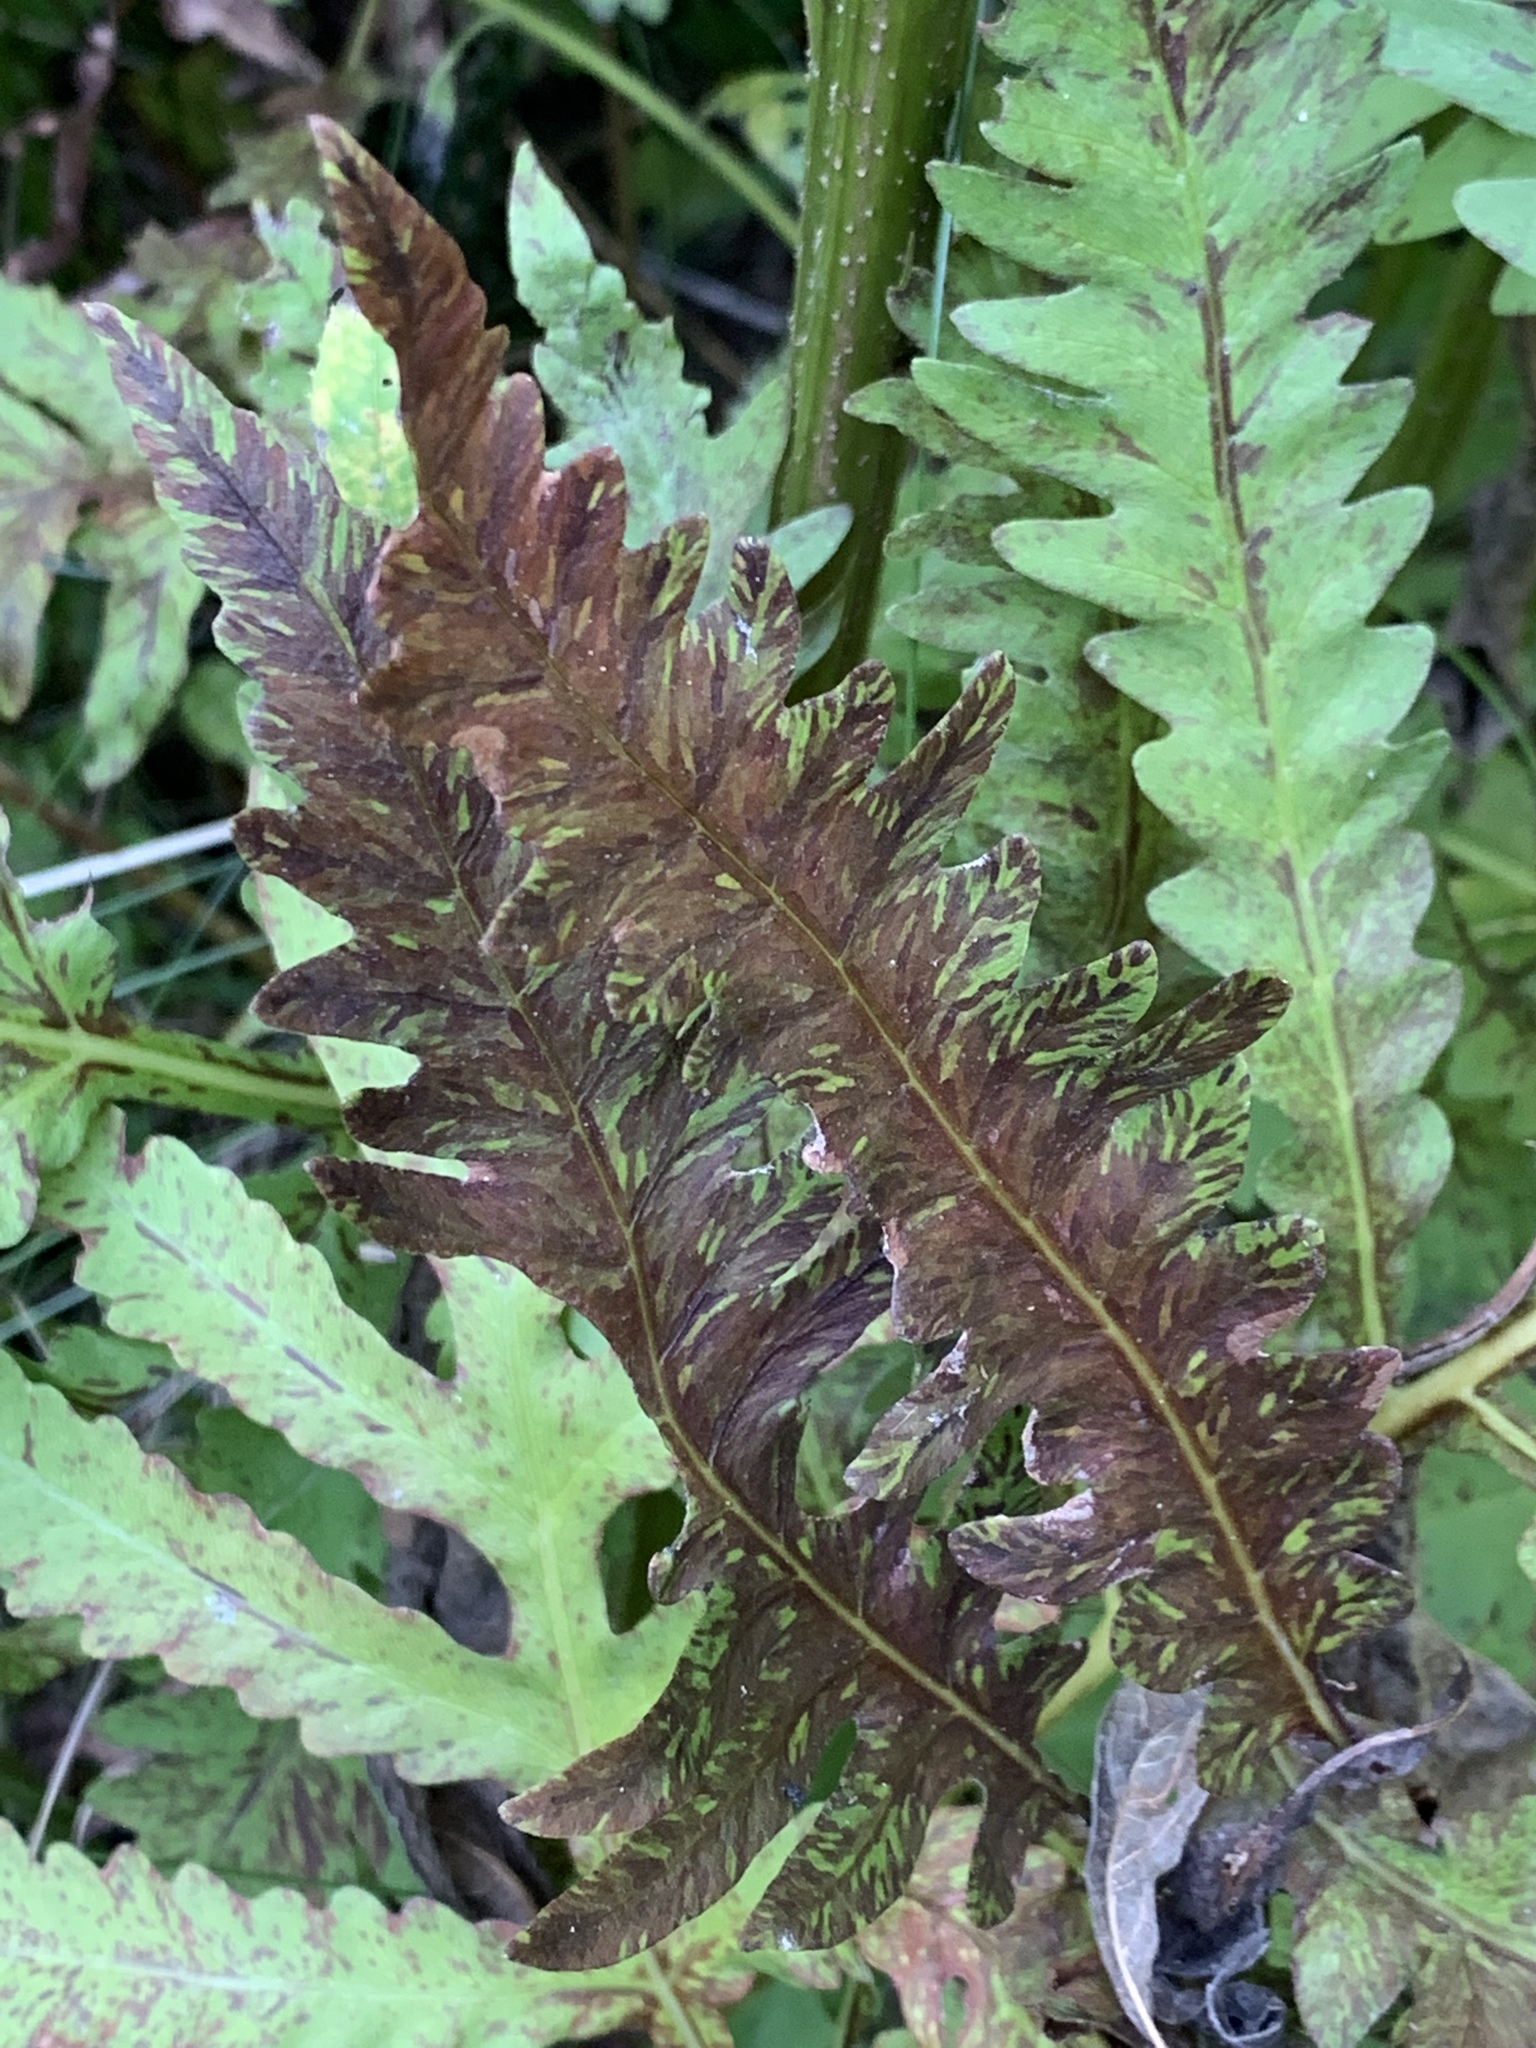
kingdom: Plantae
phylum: Tracheophyta
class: Polypodiopsida
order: Polypodiales
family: Onocleaceae
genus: Onoclea
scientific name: Onoclea sensibilis
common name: Sensitive fern
